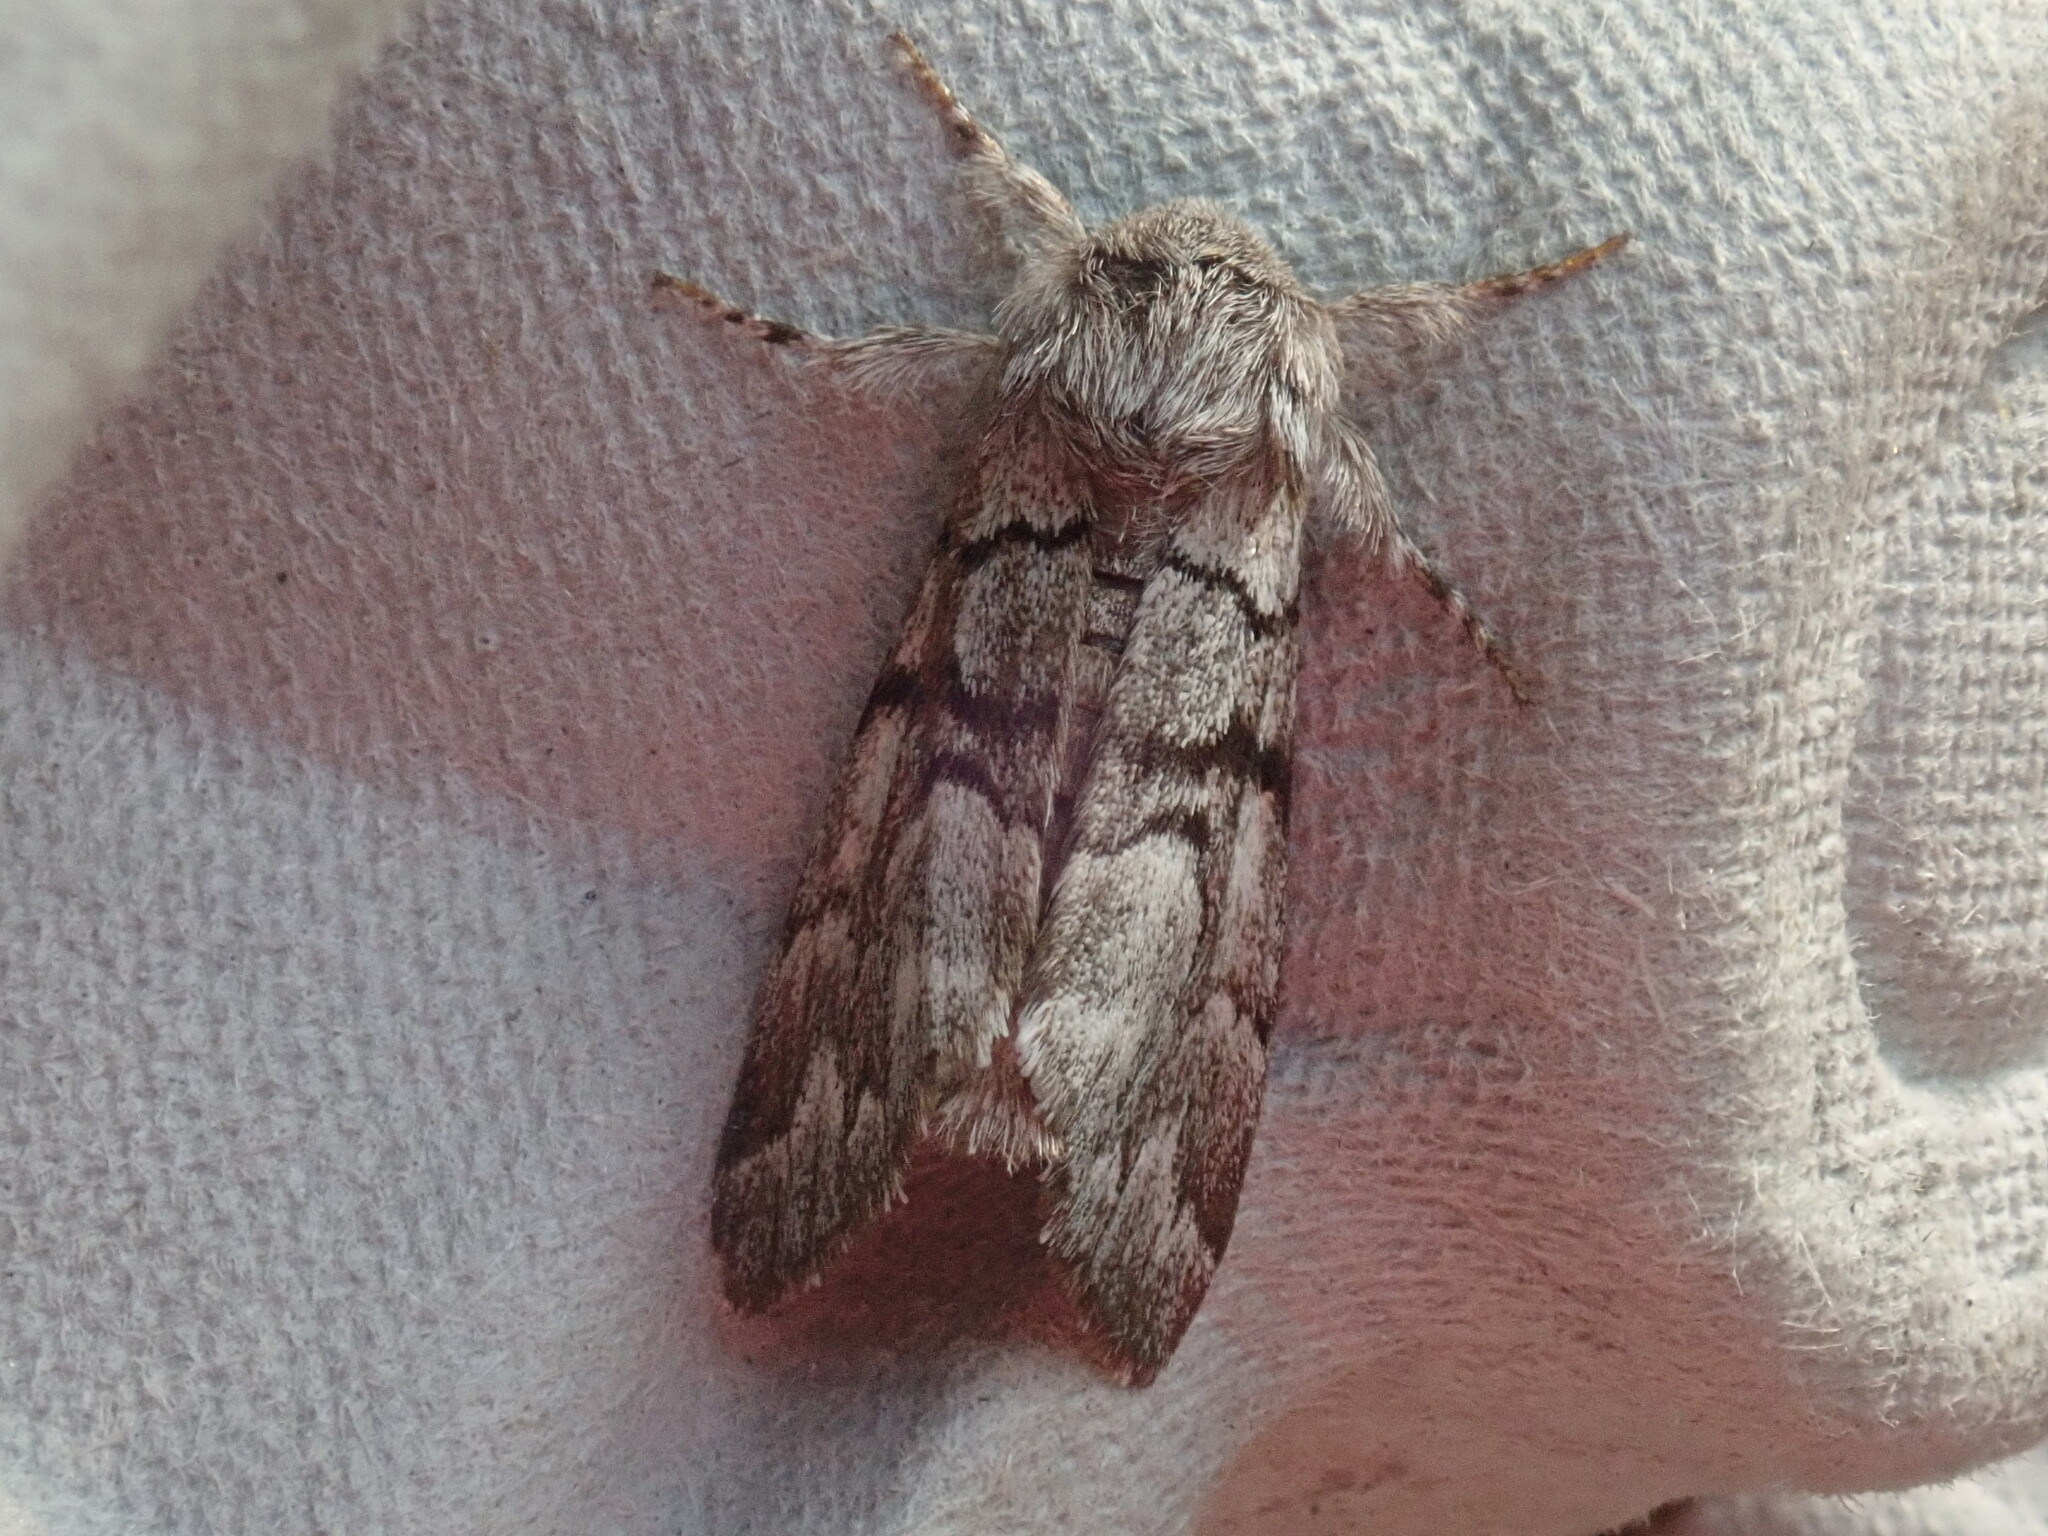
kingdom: Animalia
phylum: Arthropoda
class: Insecta
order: Lepidoptera
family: Noctuidae
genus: Panthea
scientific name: Panthea furcilla
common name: Eastern panthea moth
